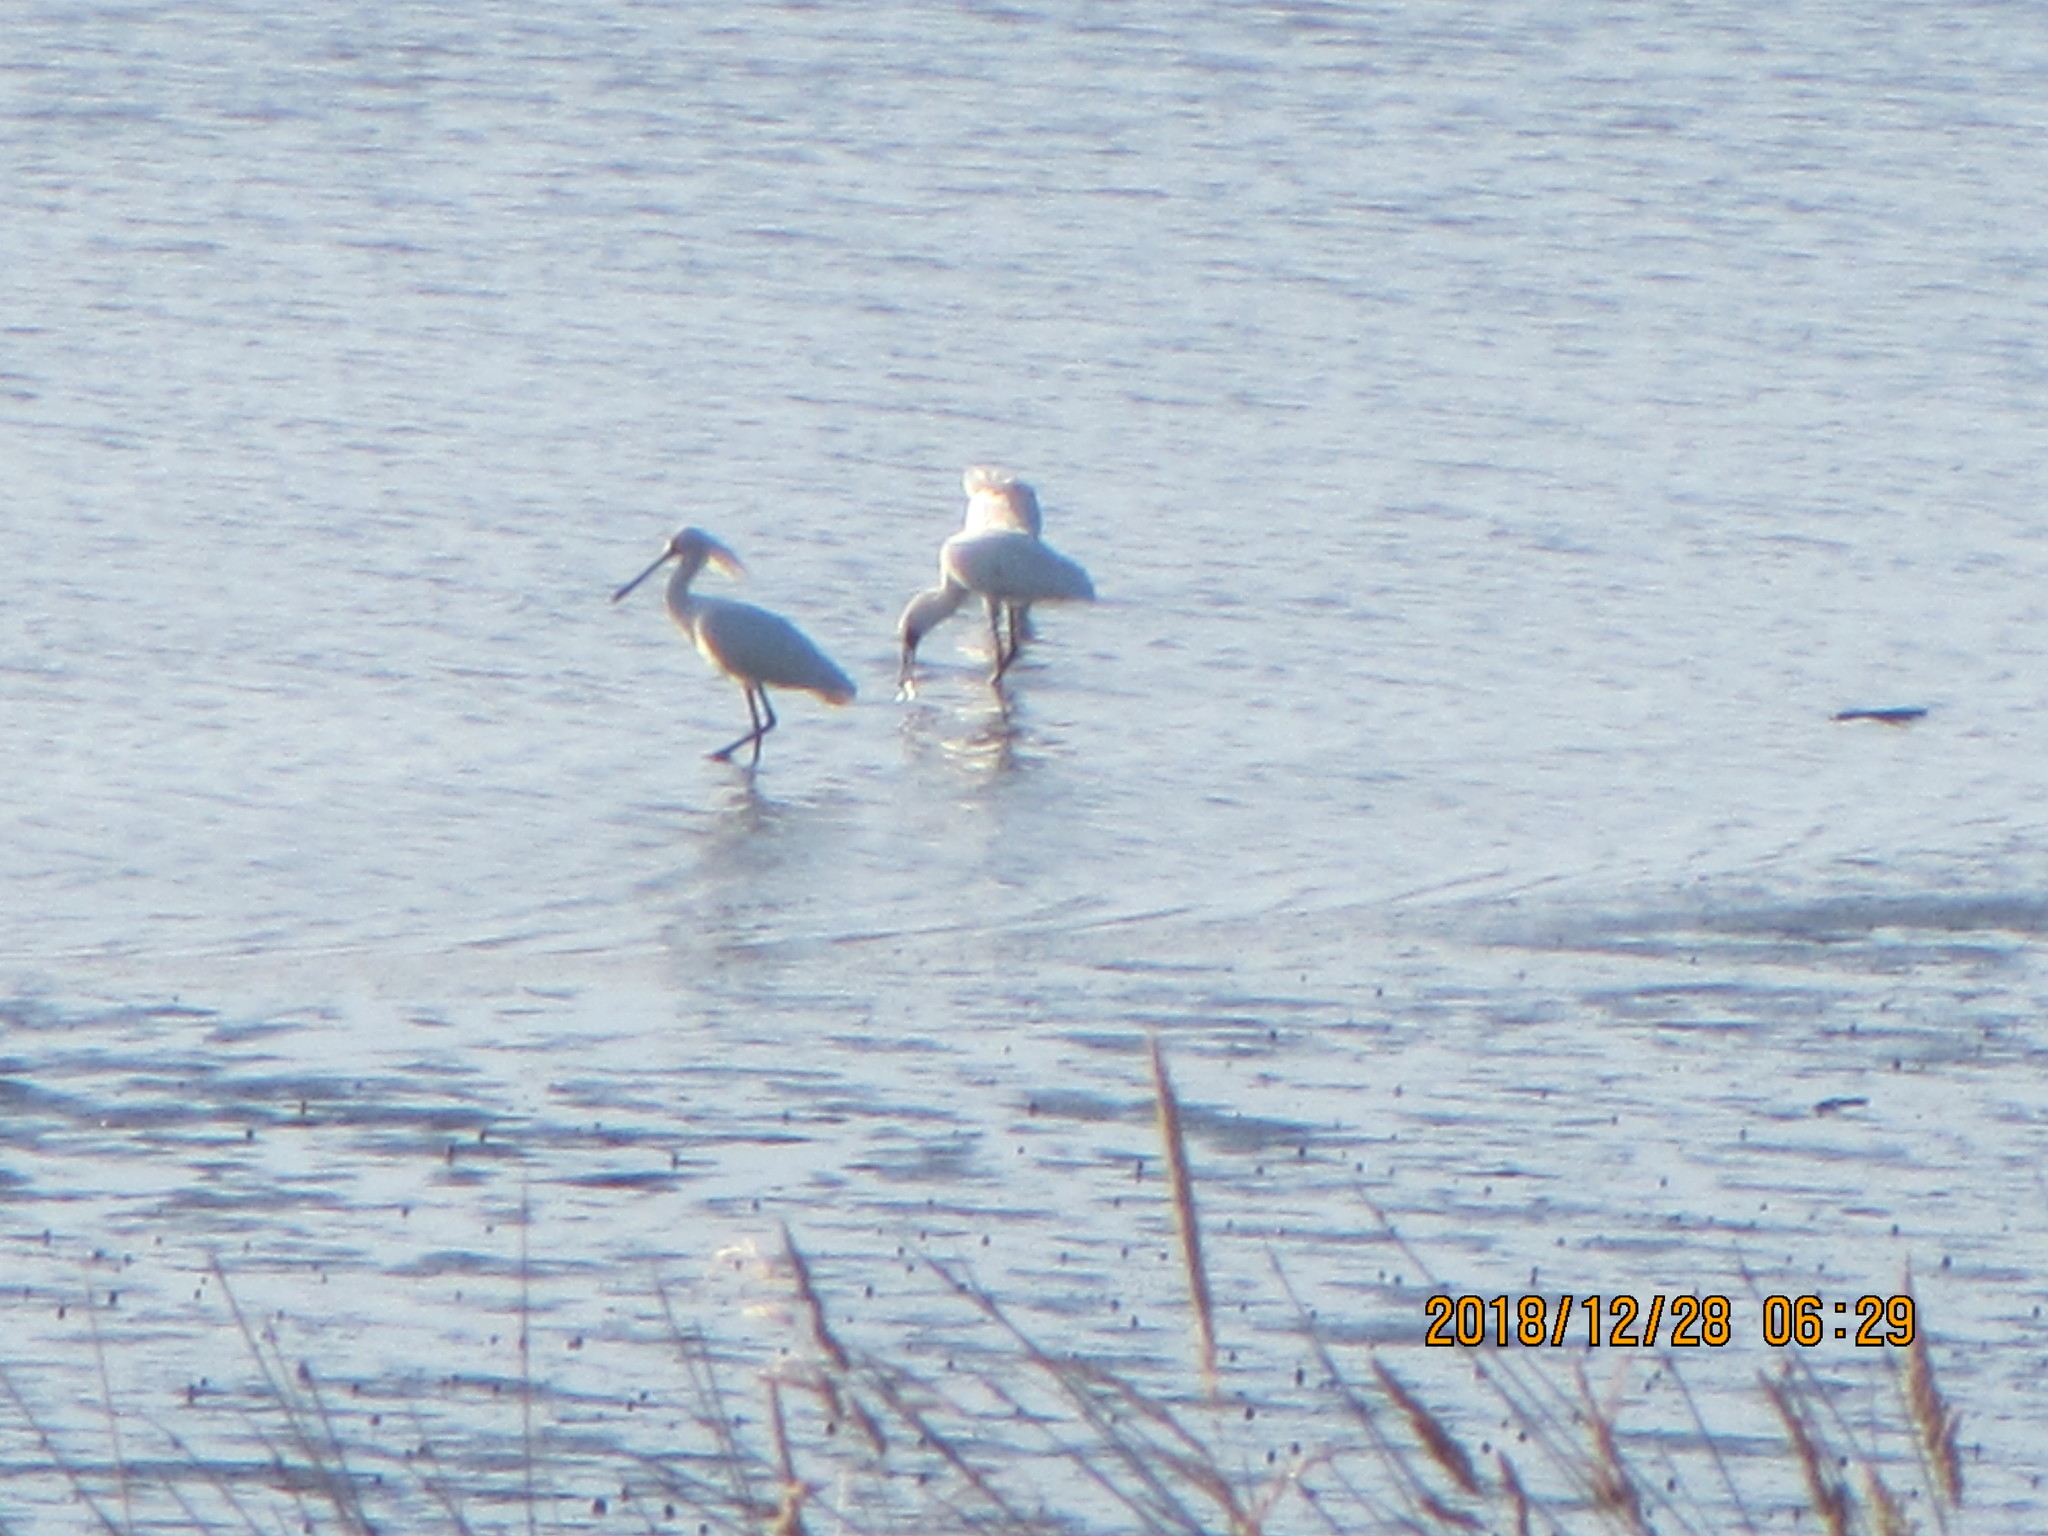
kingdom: Animalia
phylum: Chordata
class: Aves
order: Pelecaniformes
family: Threskiornithidae
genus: Platalea
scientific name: Platalea regia
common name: Royal spoonbill
